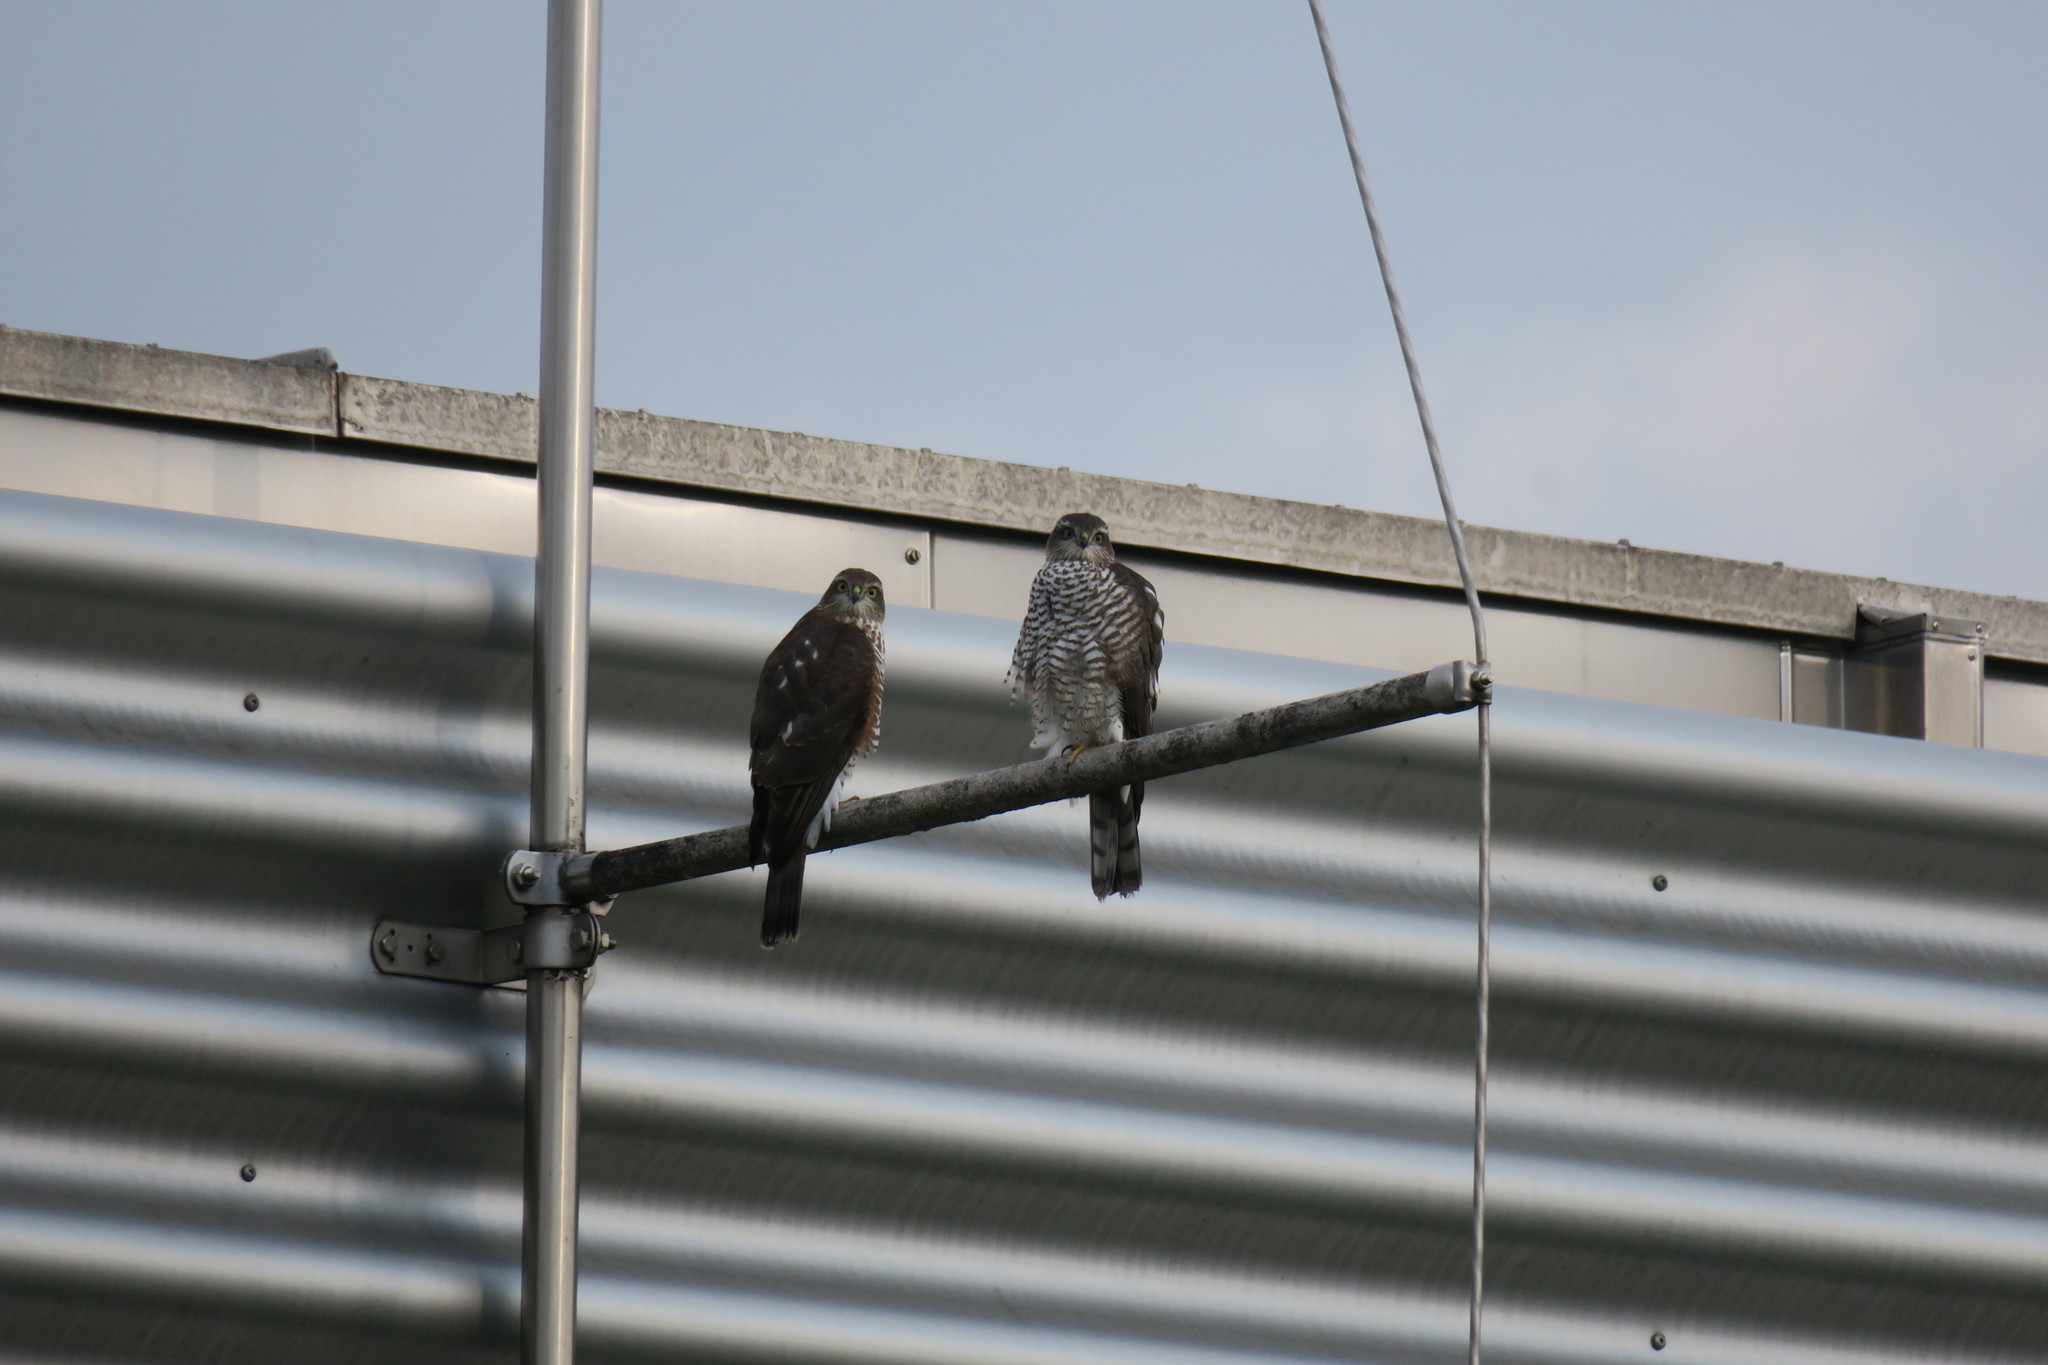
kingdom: Animalia
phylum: Chordata
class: Aves
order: Accipitriformes
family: Accipitridae
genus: Accipiter
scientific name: Accipiter nisus
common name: Eurasian sparrowhawk
